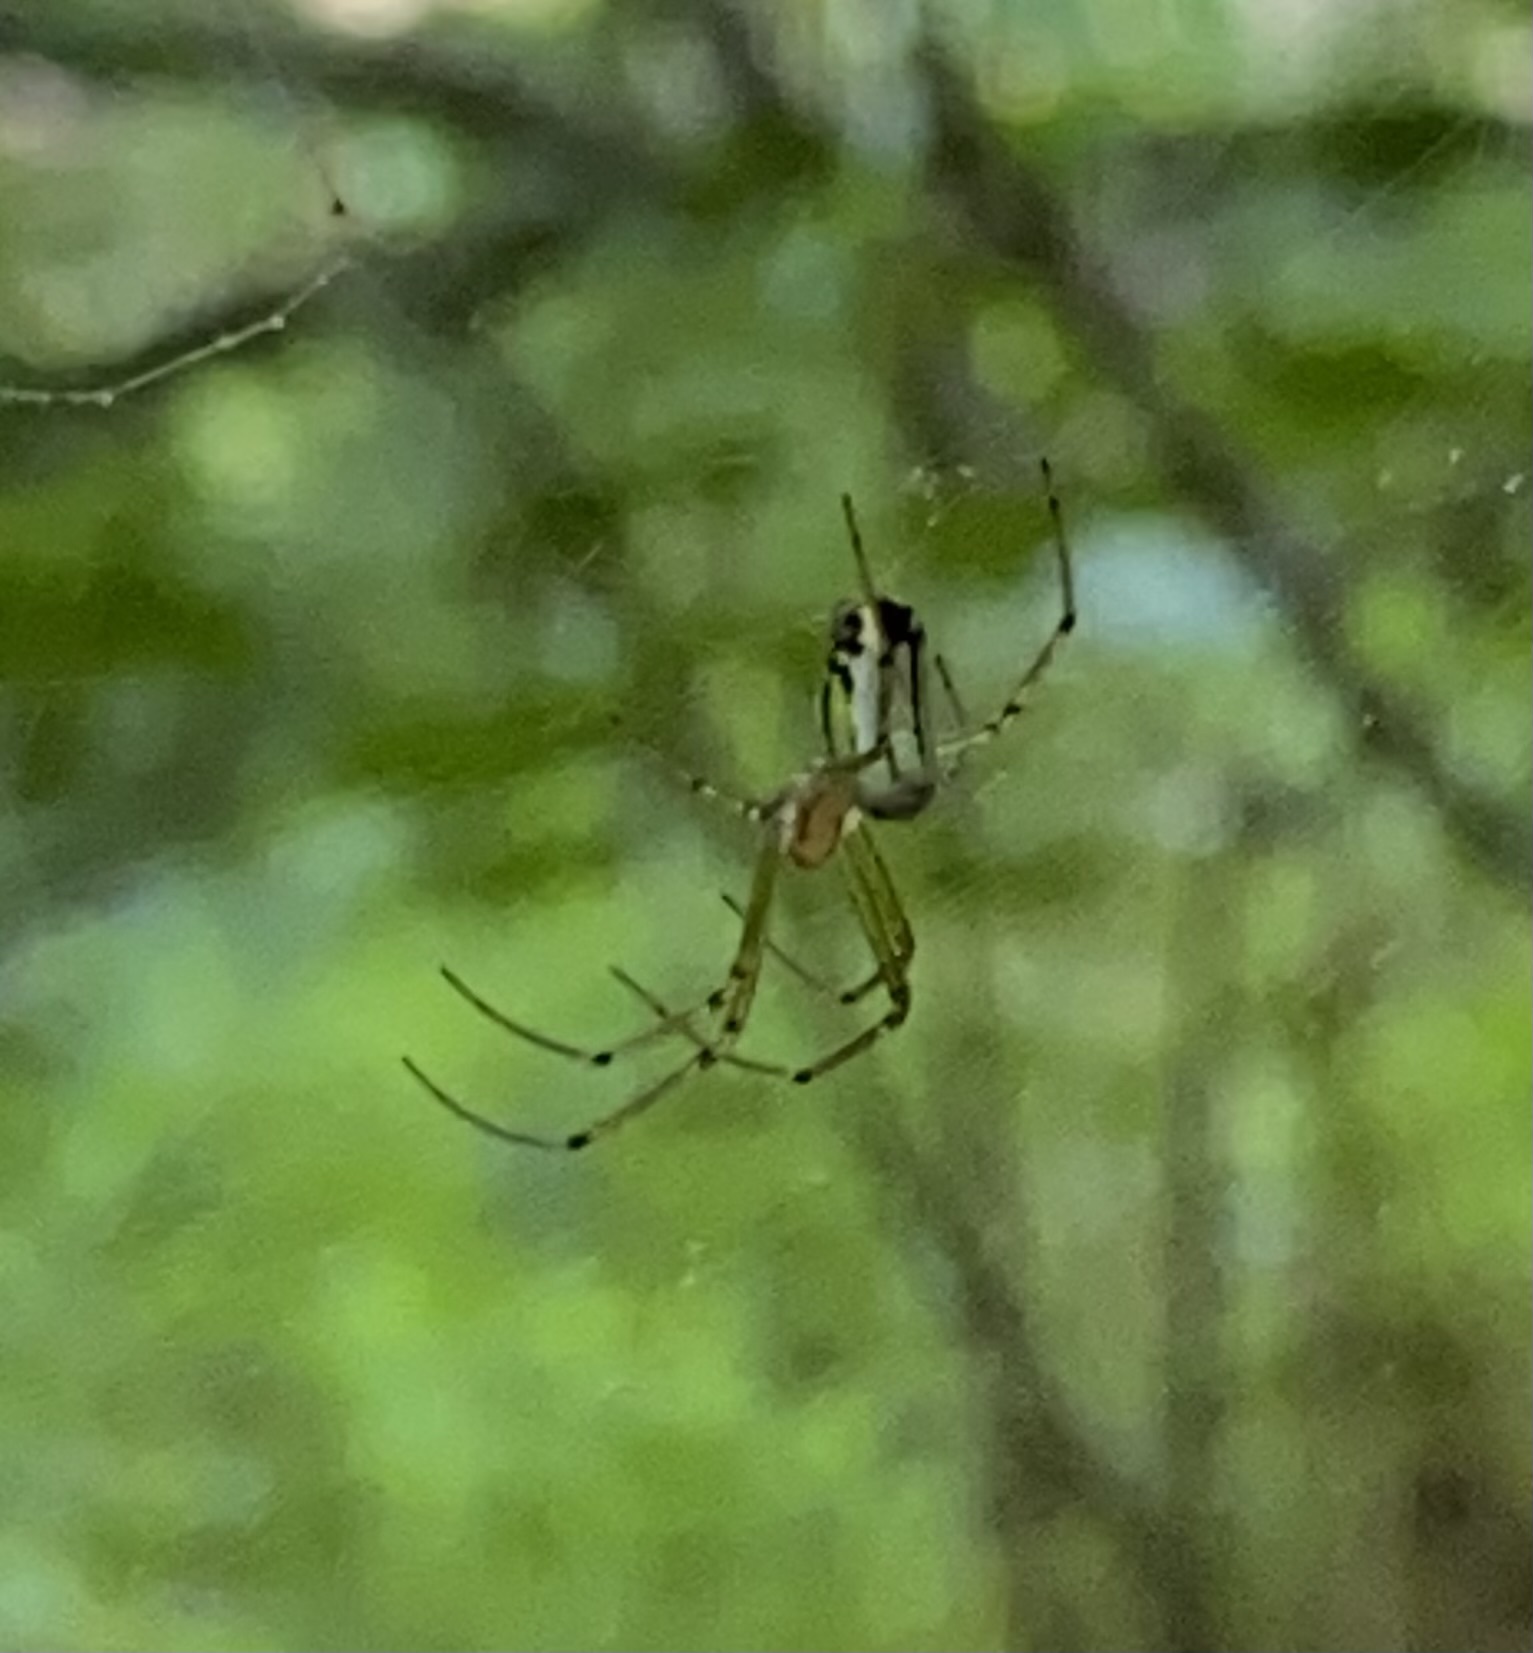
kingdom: Animalia
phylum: Arthropoda
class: Arachnida
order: Araneae
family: Tetragnathidae
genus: Leucauge
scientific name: Leucauge venusta
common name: Longjawed orb weavers
